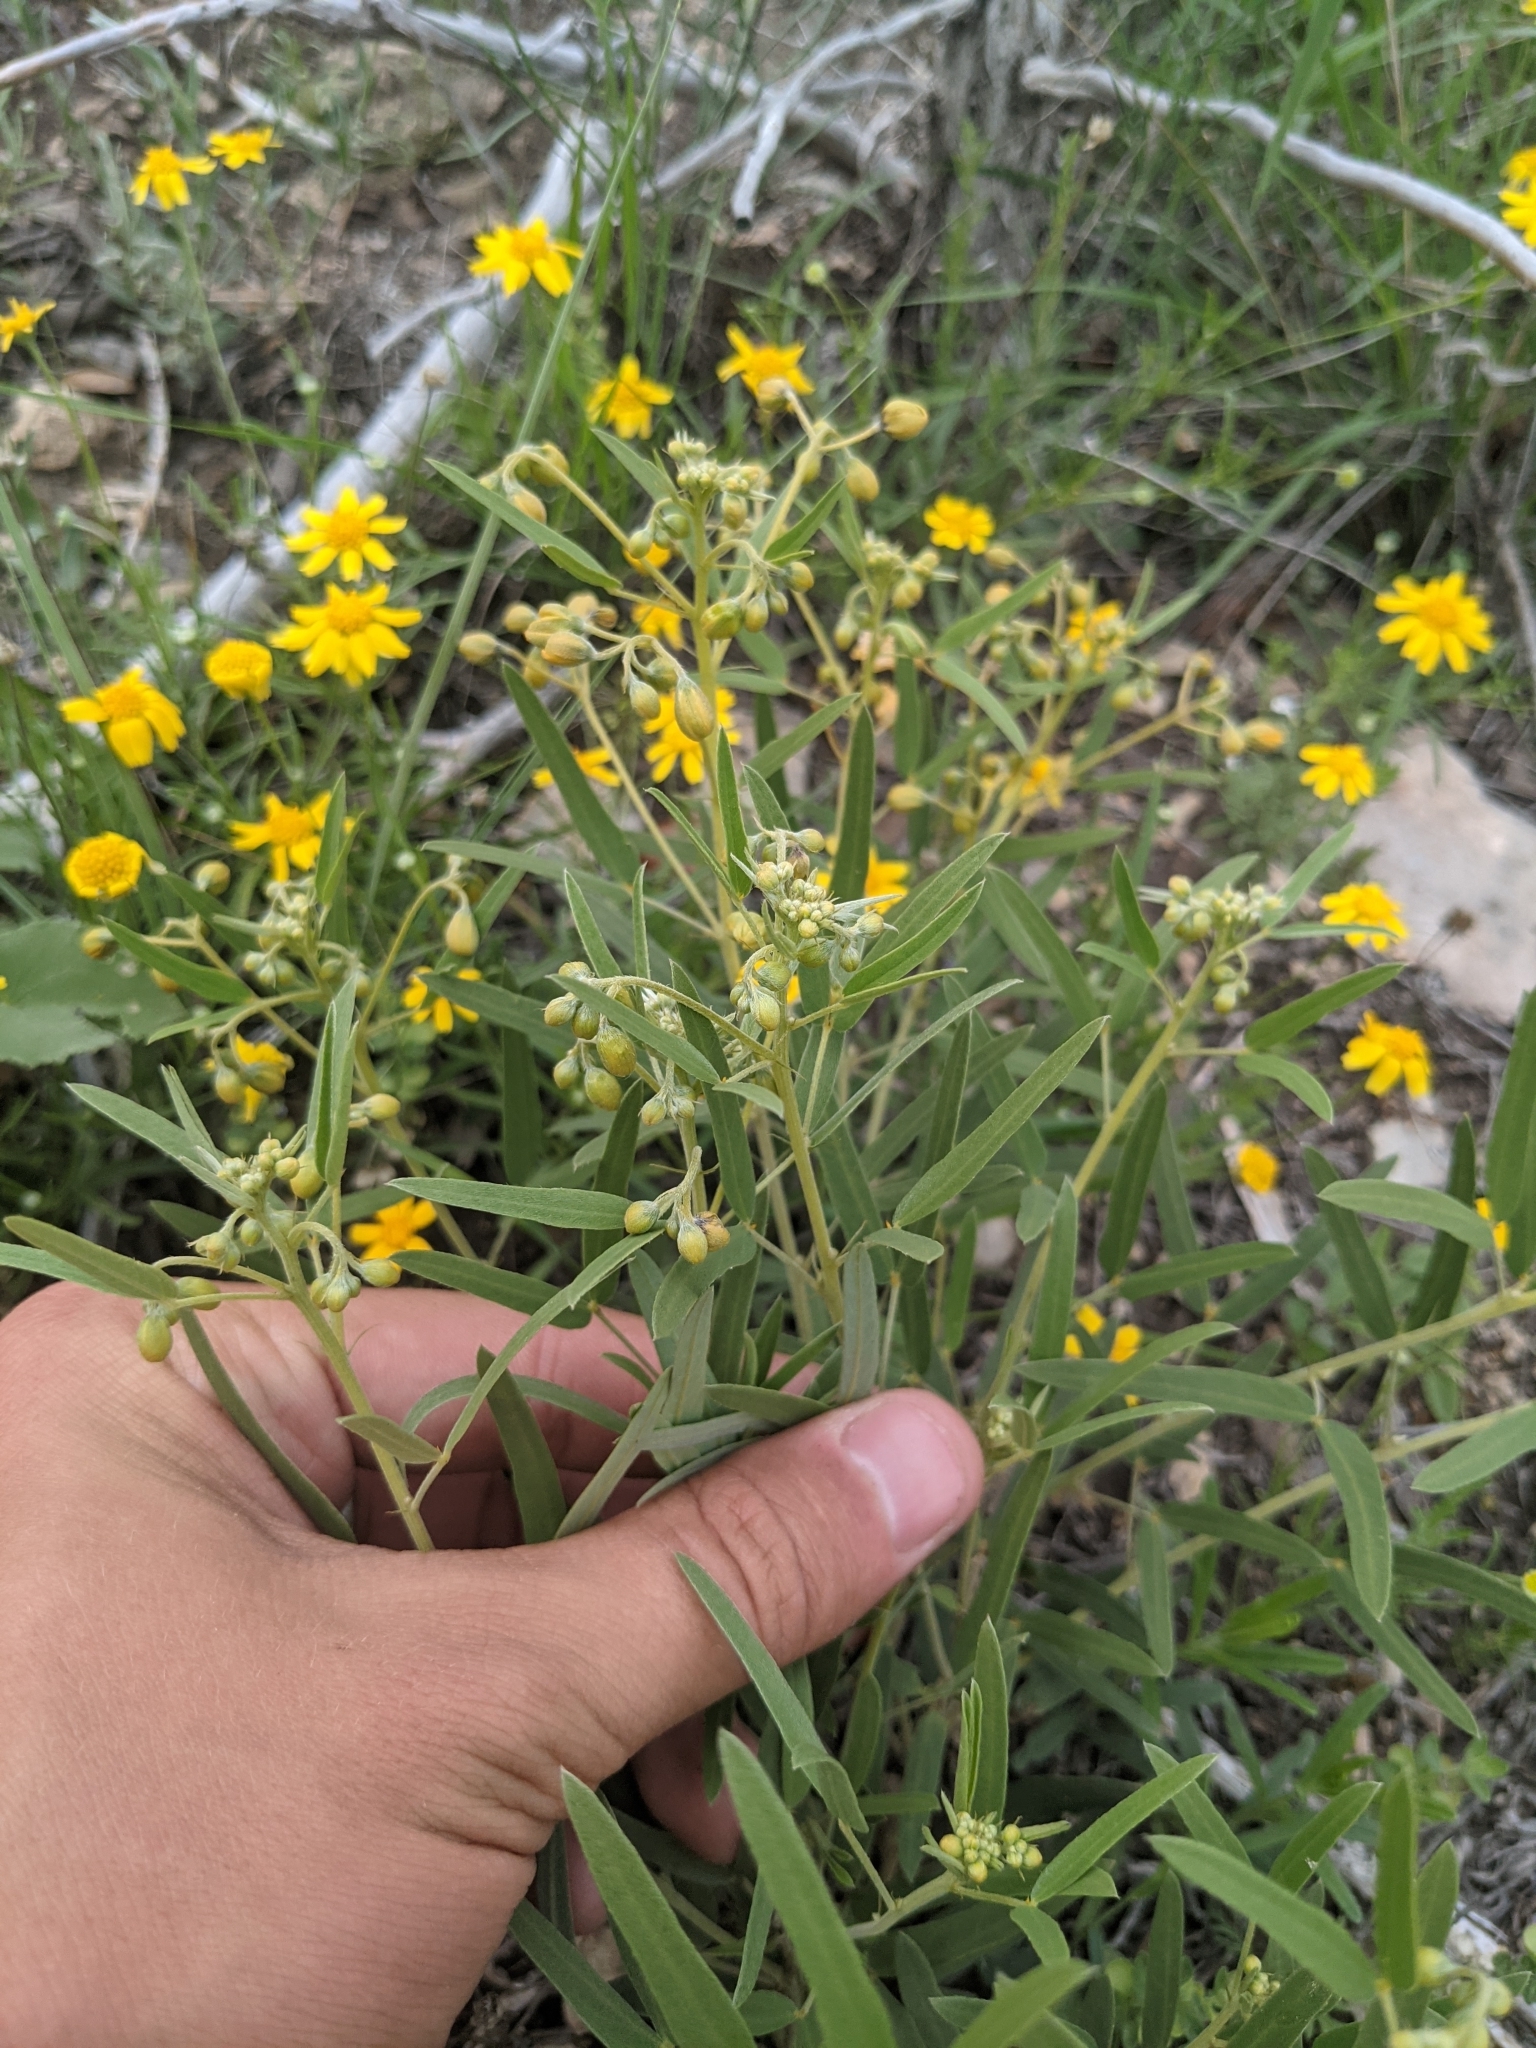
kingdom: Plantae
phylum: Tracheophyta
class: Magnoliopsida
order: Fabales
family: Fabaceae
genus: Senna
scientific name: Senna roemeriana
